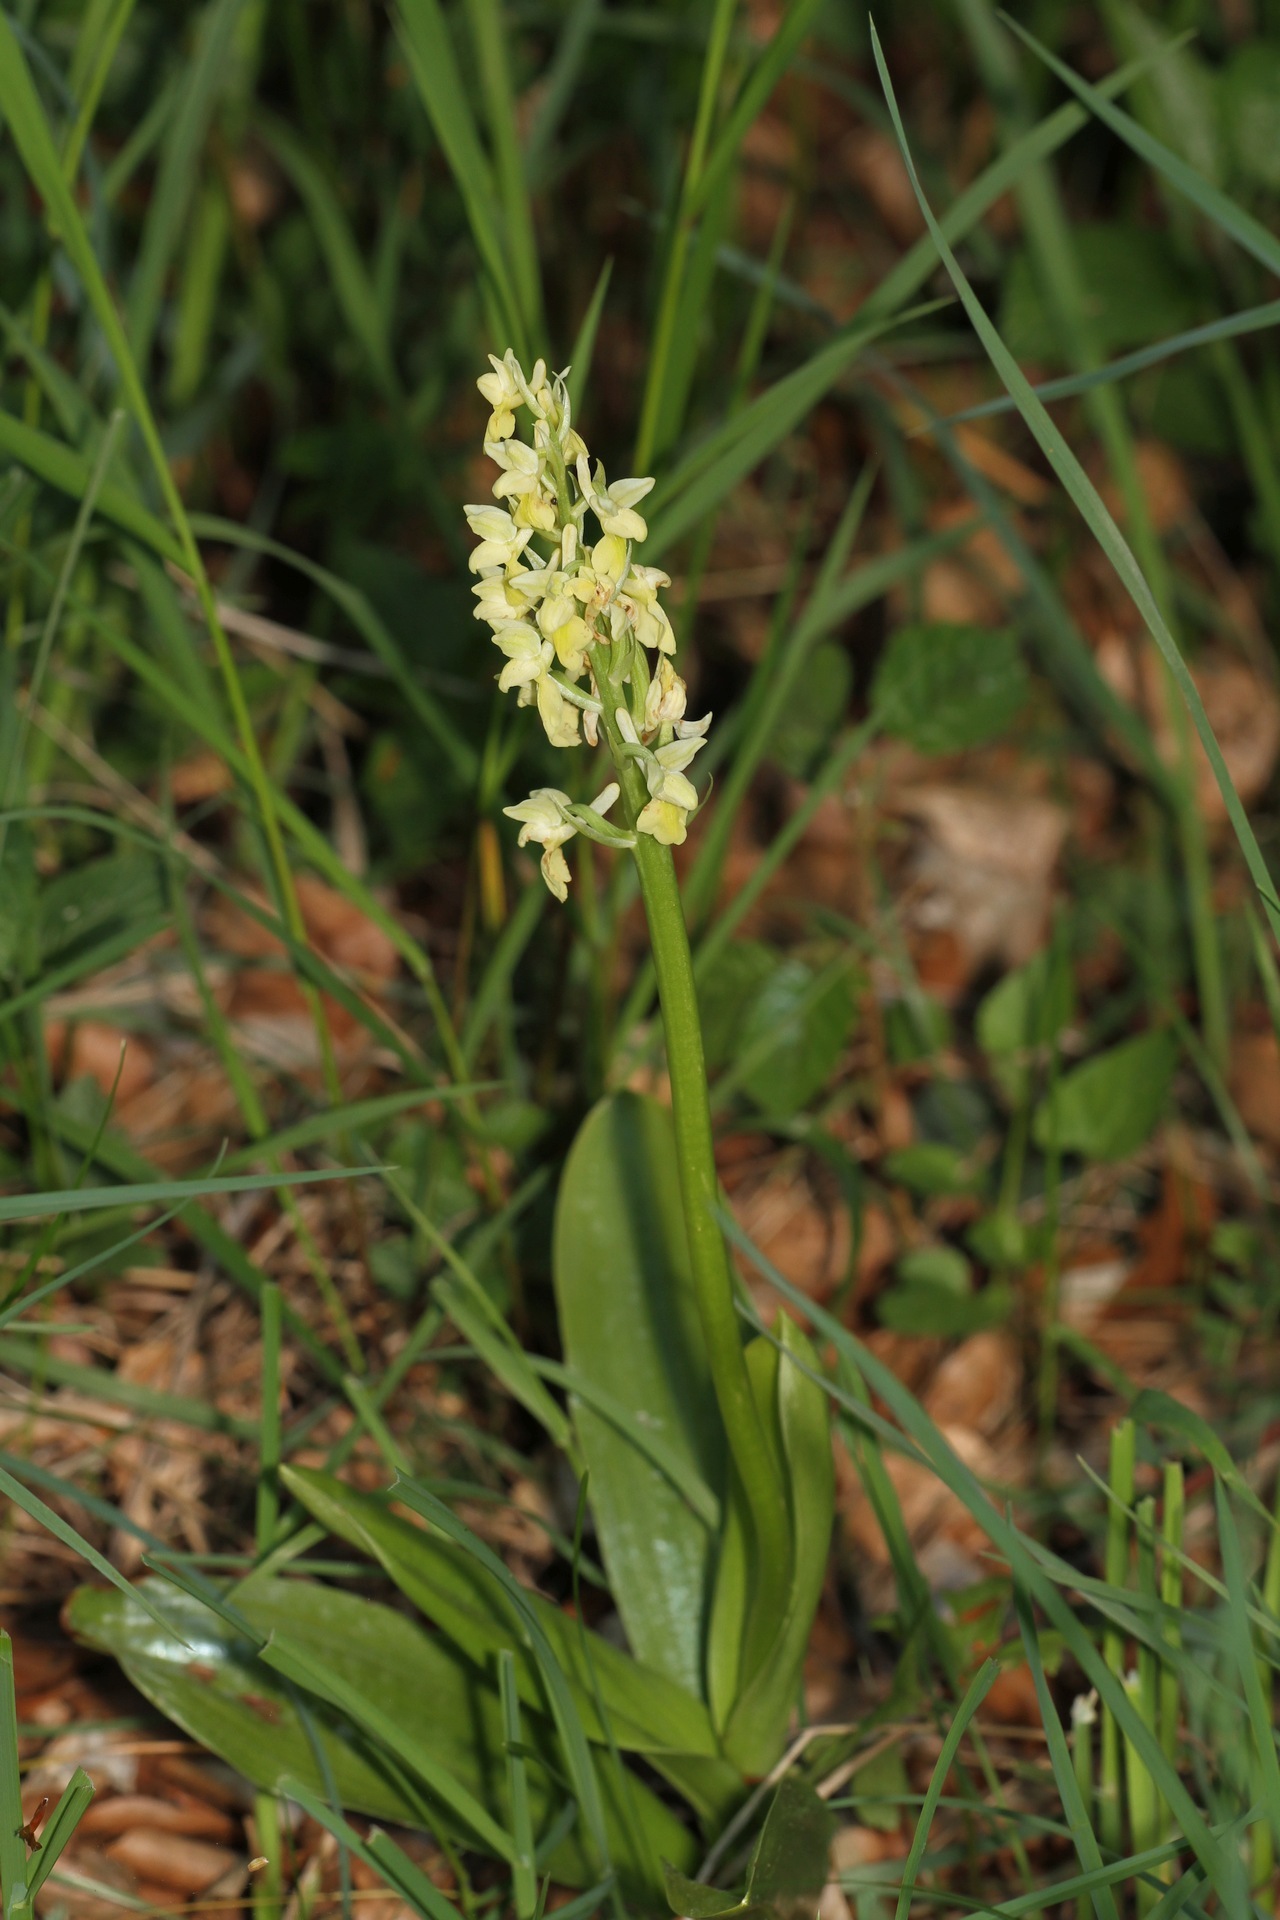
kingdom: Plantae
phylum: Tracheophyta
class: Liliopsida
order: Asparagales
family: Orchidaceae
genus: Orchis
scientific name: Orchis pallens
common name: Pale-flowered orchid
